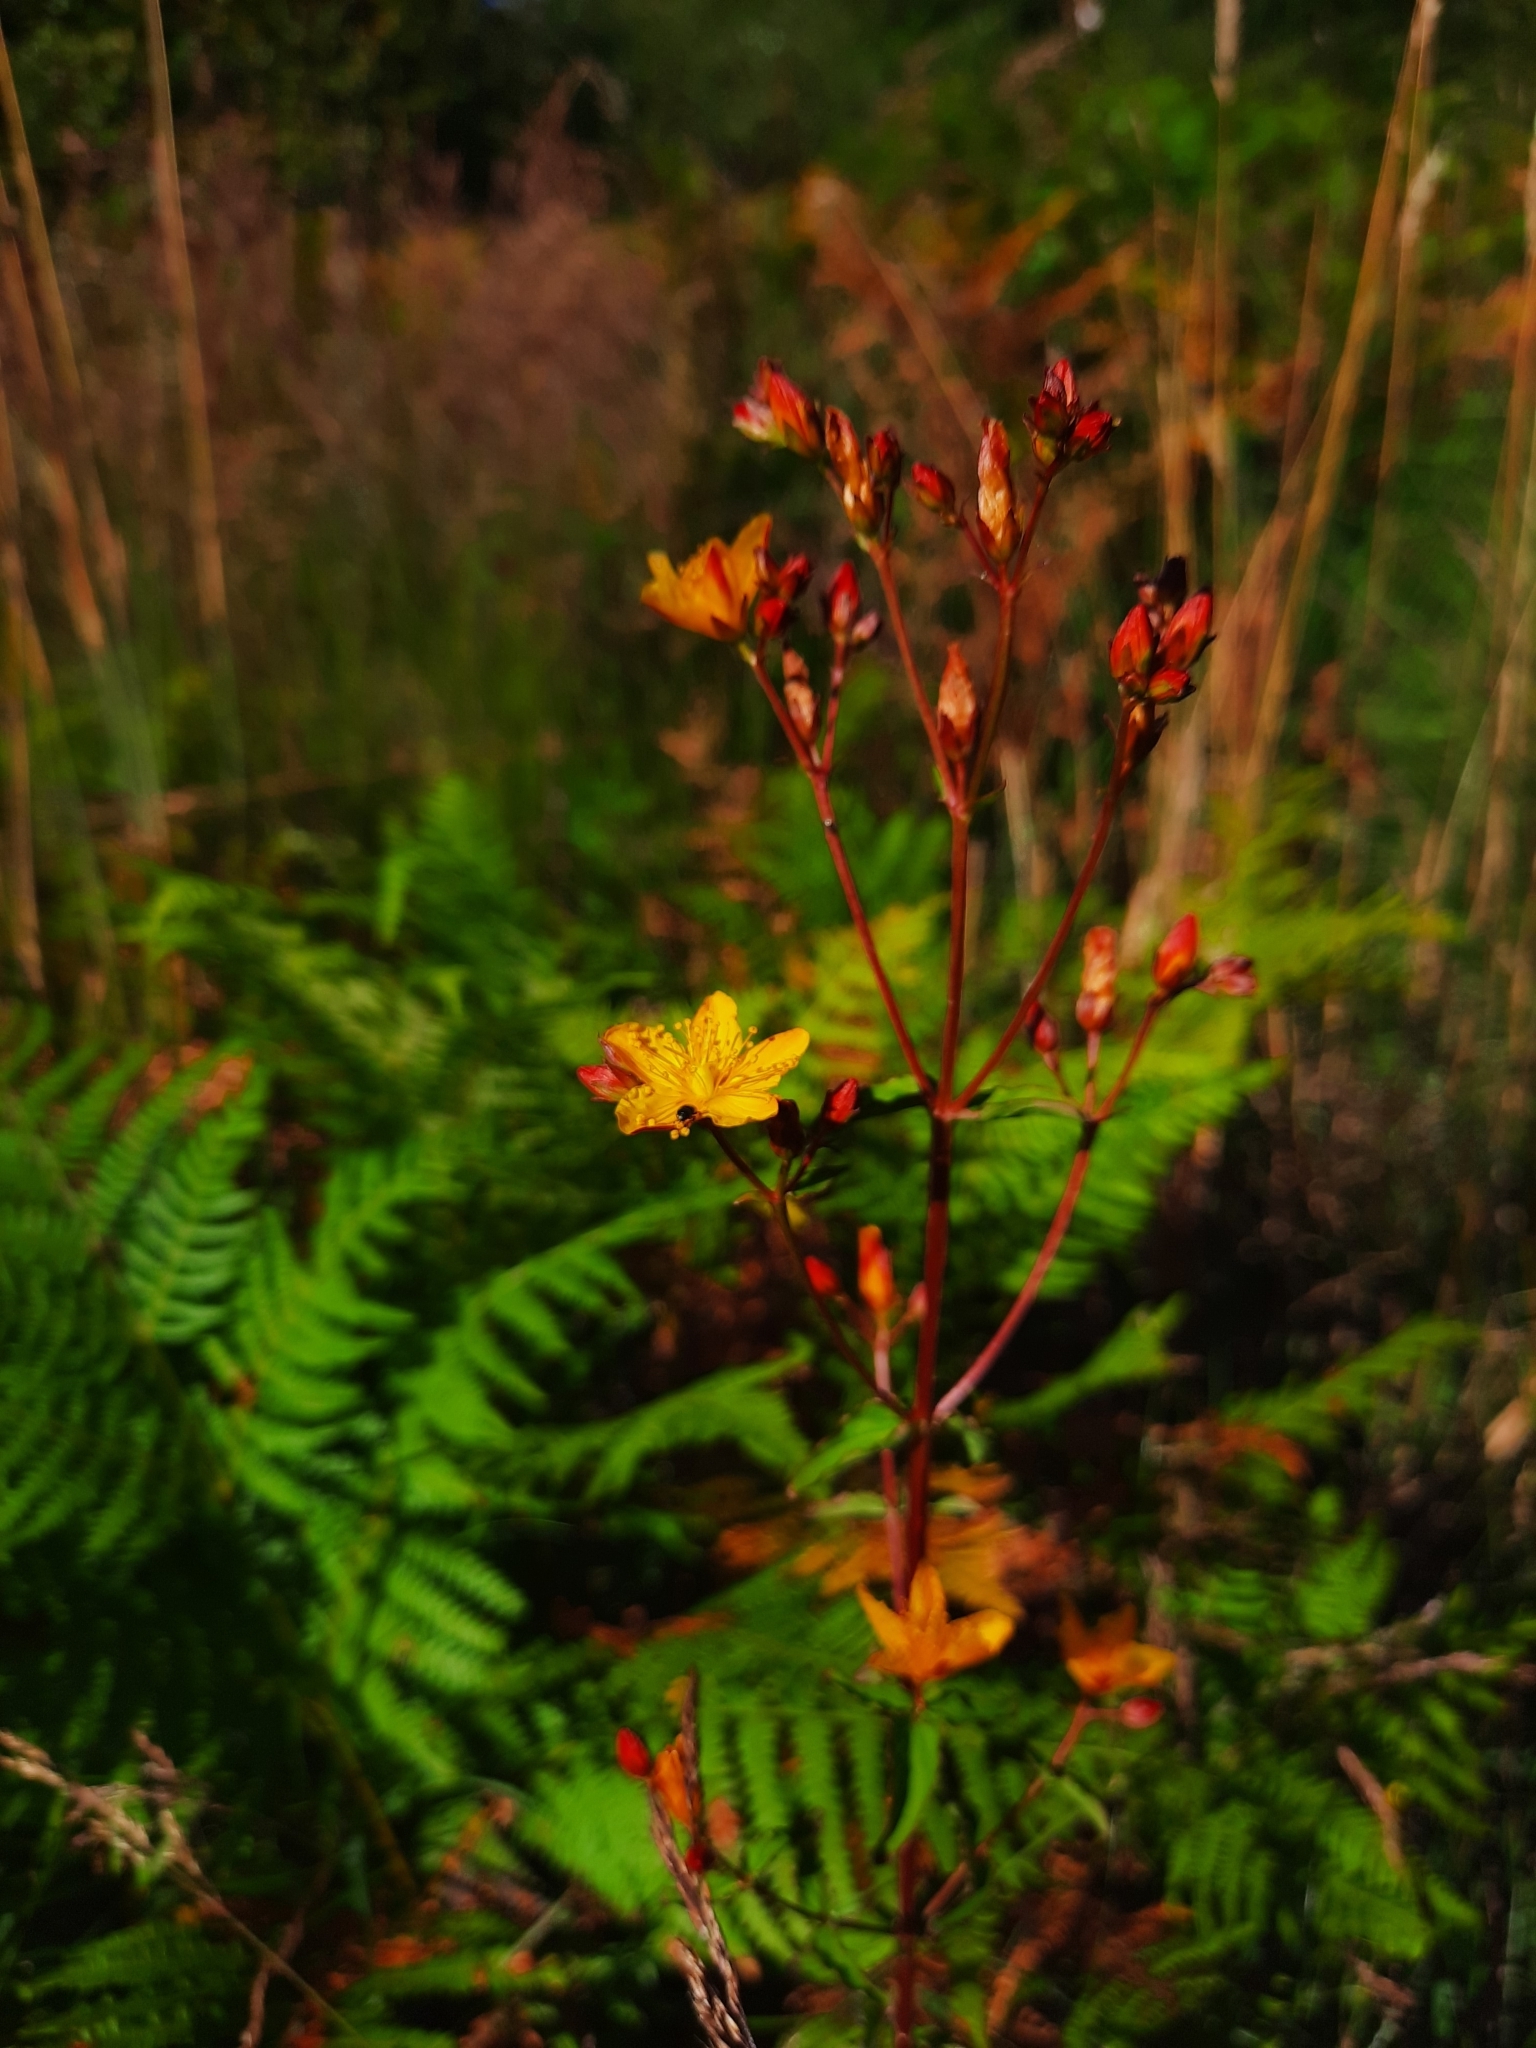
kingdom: Plantae
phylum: Tracheophyta
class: Magnoliopsida
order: Malpighiales
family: Hypericaceae
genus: Hypericum
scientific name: Hypericum undulatum
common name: Wavy st. john's-wort
